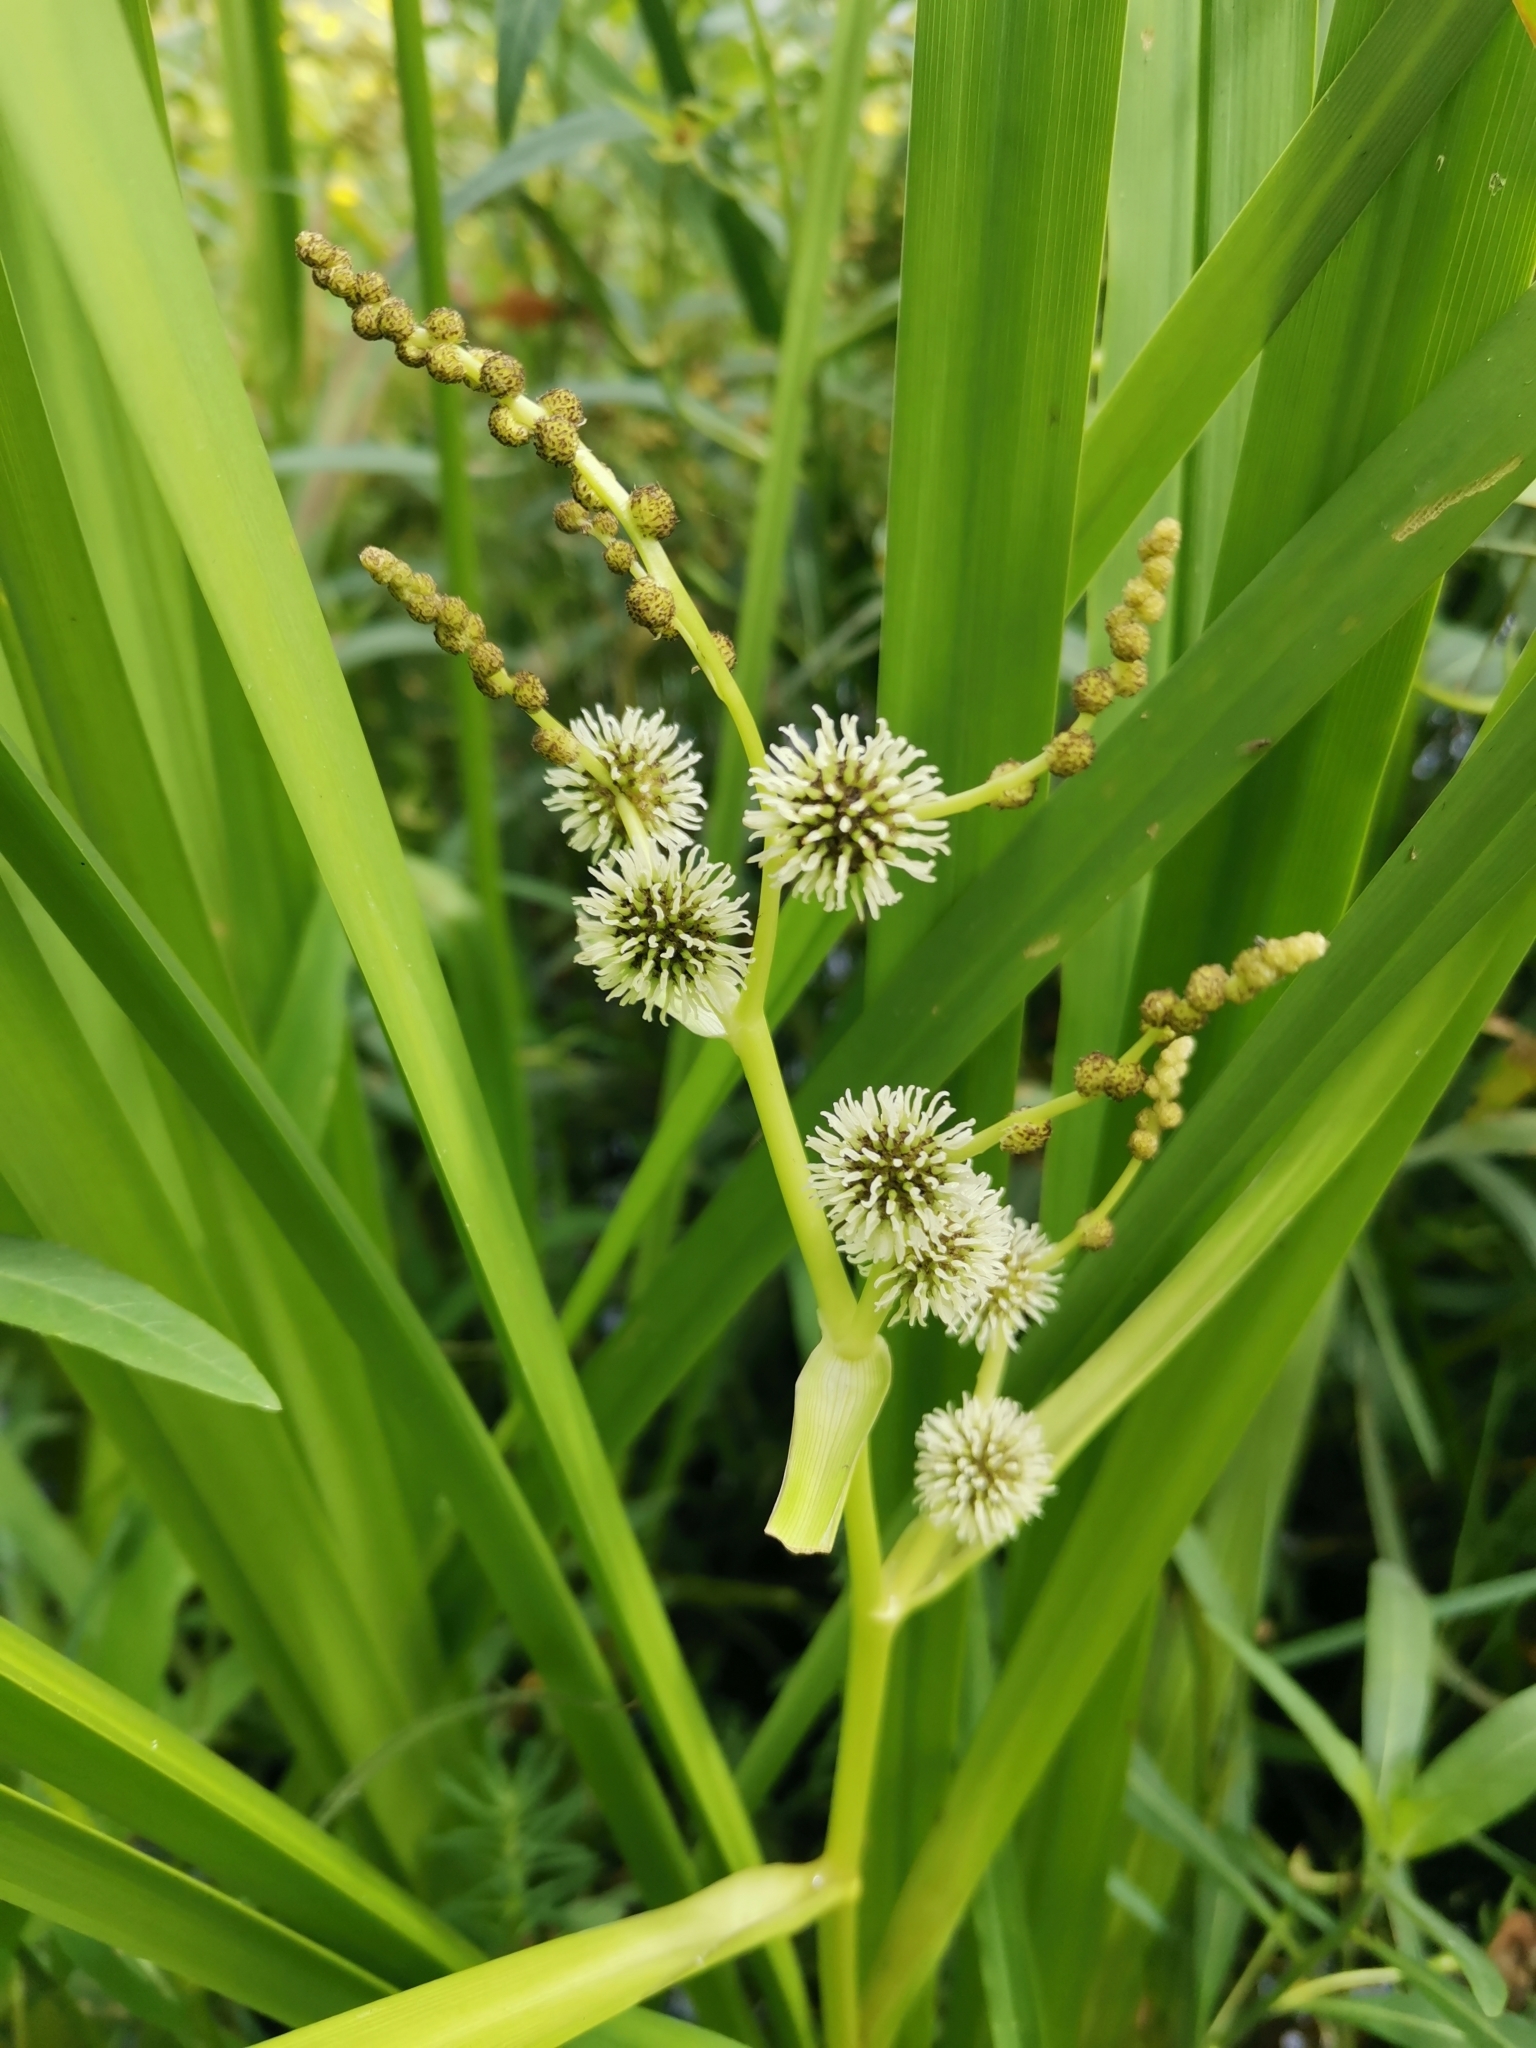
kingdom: Plantae
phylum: Tracheophyta
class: Liliopsida
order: Poales
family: Typhaceae
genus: Sparganium
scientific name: Sparganium erectum
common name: Branched bur-reed
